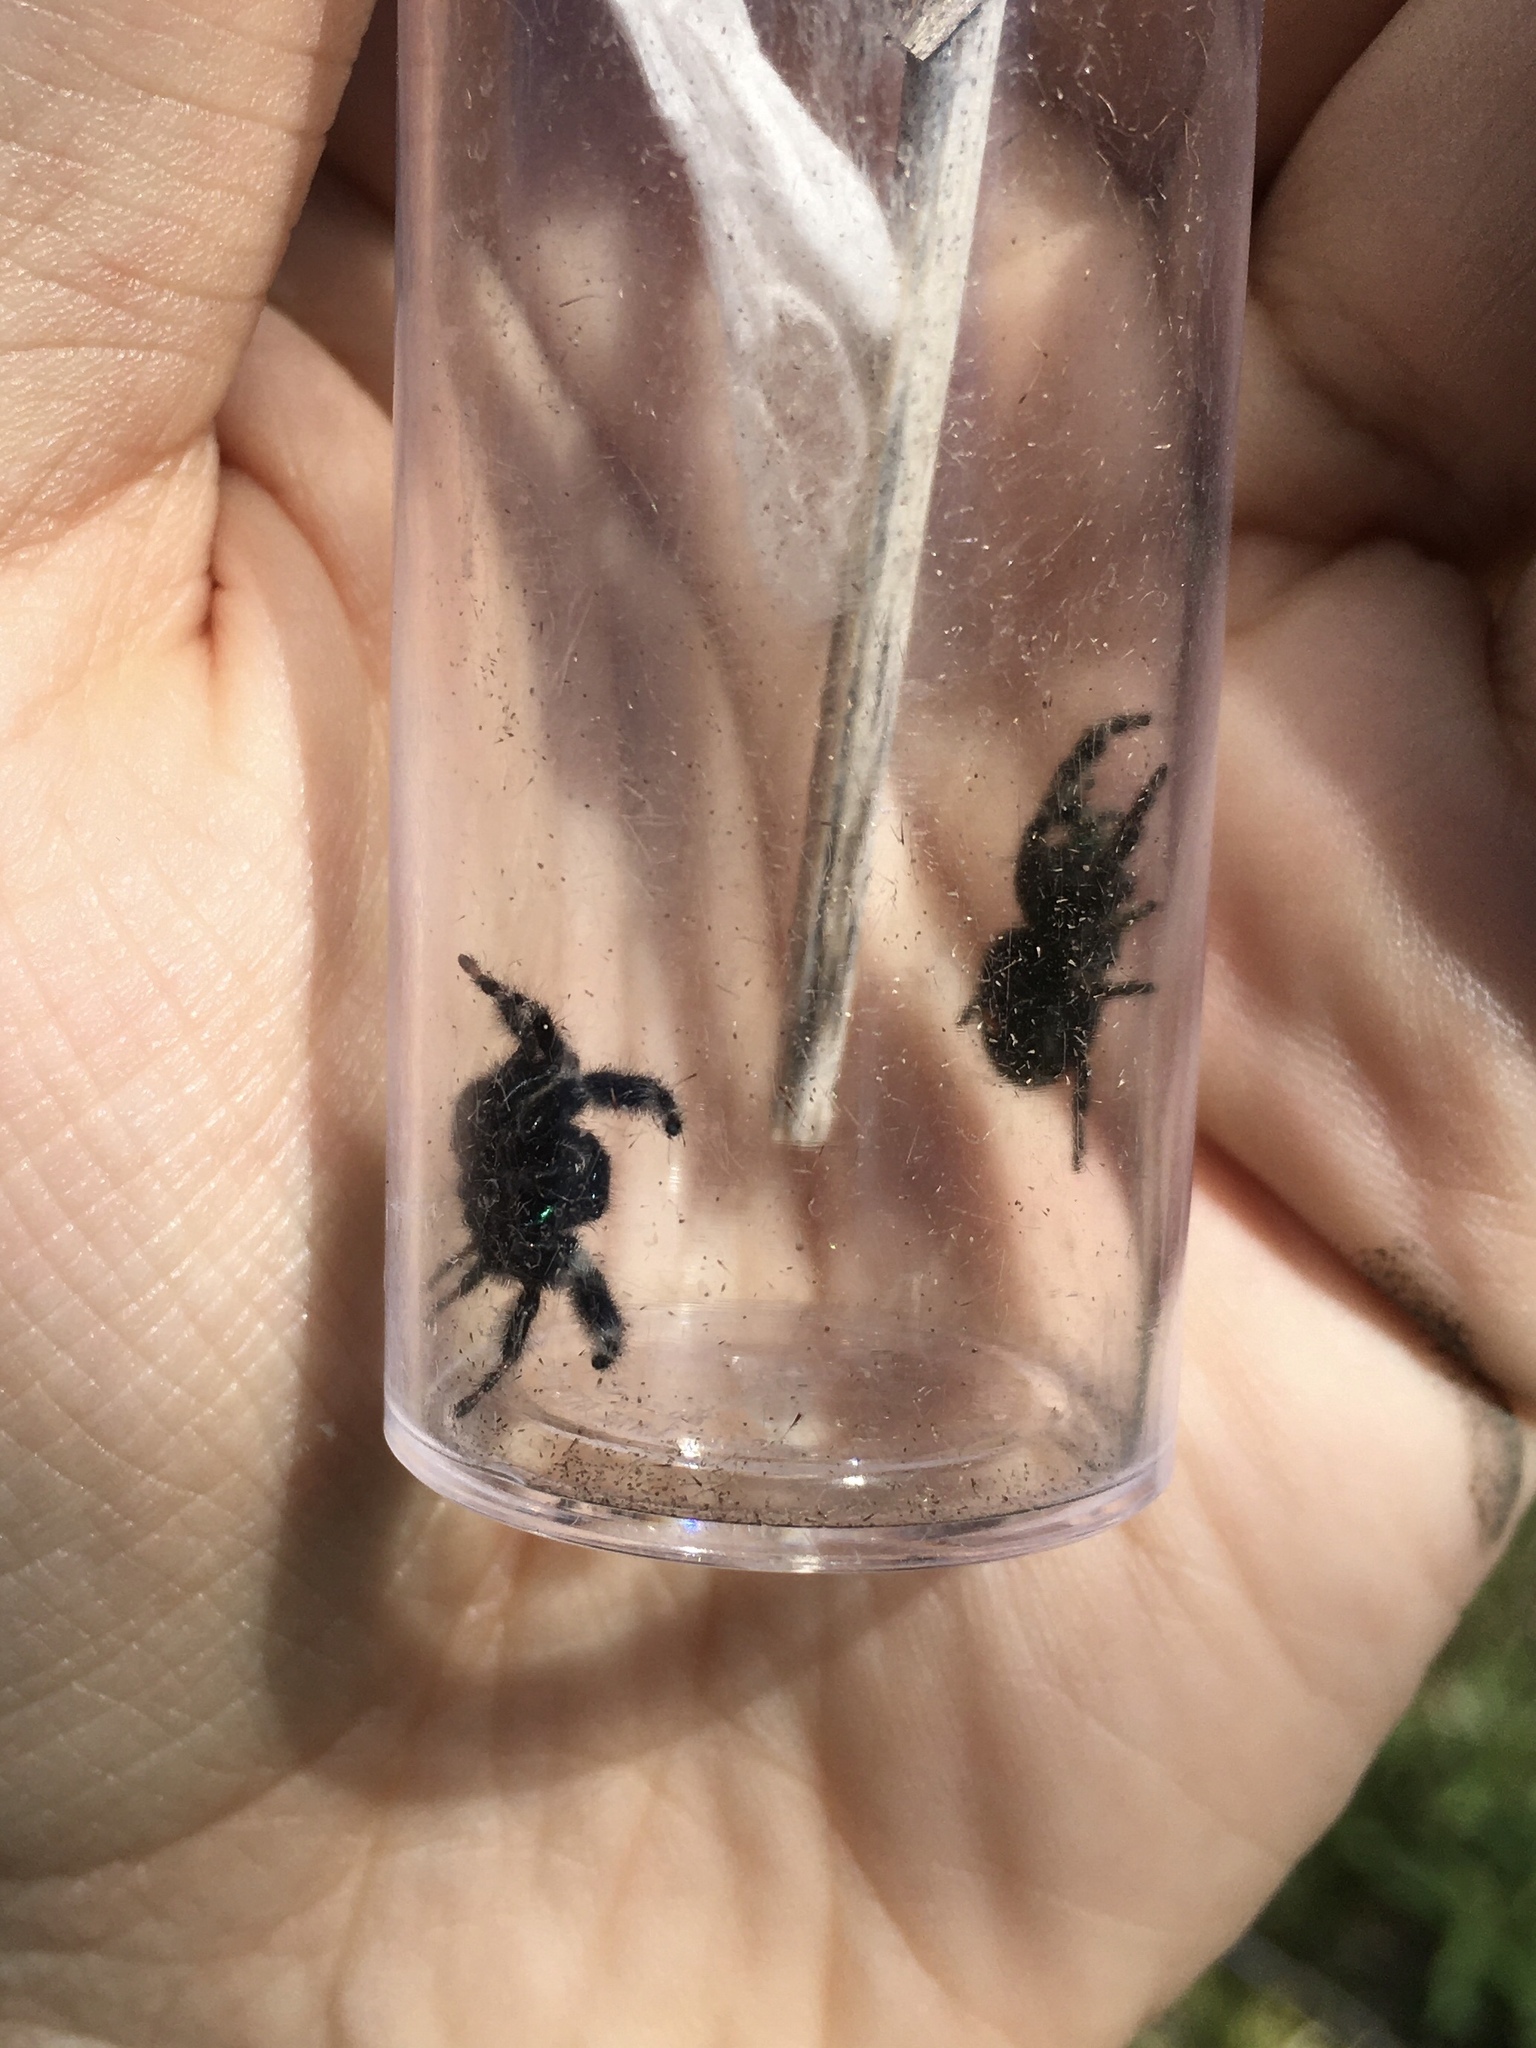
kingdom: Animalia
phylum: Arthropoda
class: Arachnida
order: Araneae
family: Salticidae
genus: Phidippus
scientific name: Phidippus audax
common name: Bold jumper
